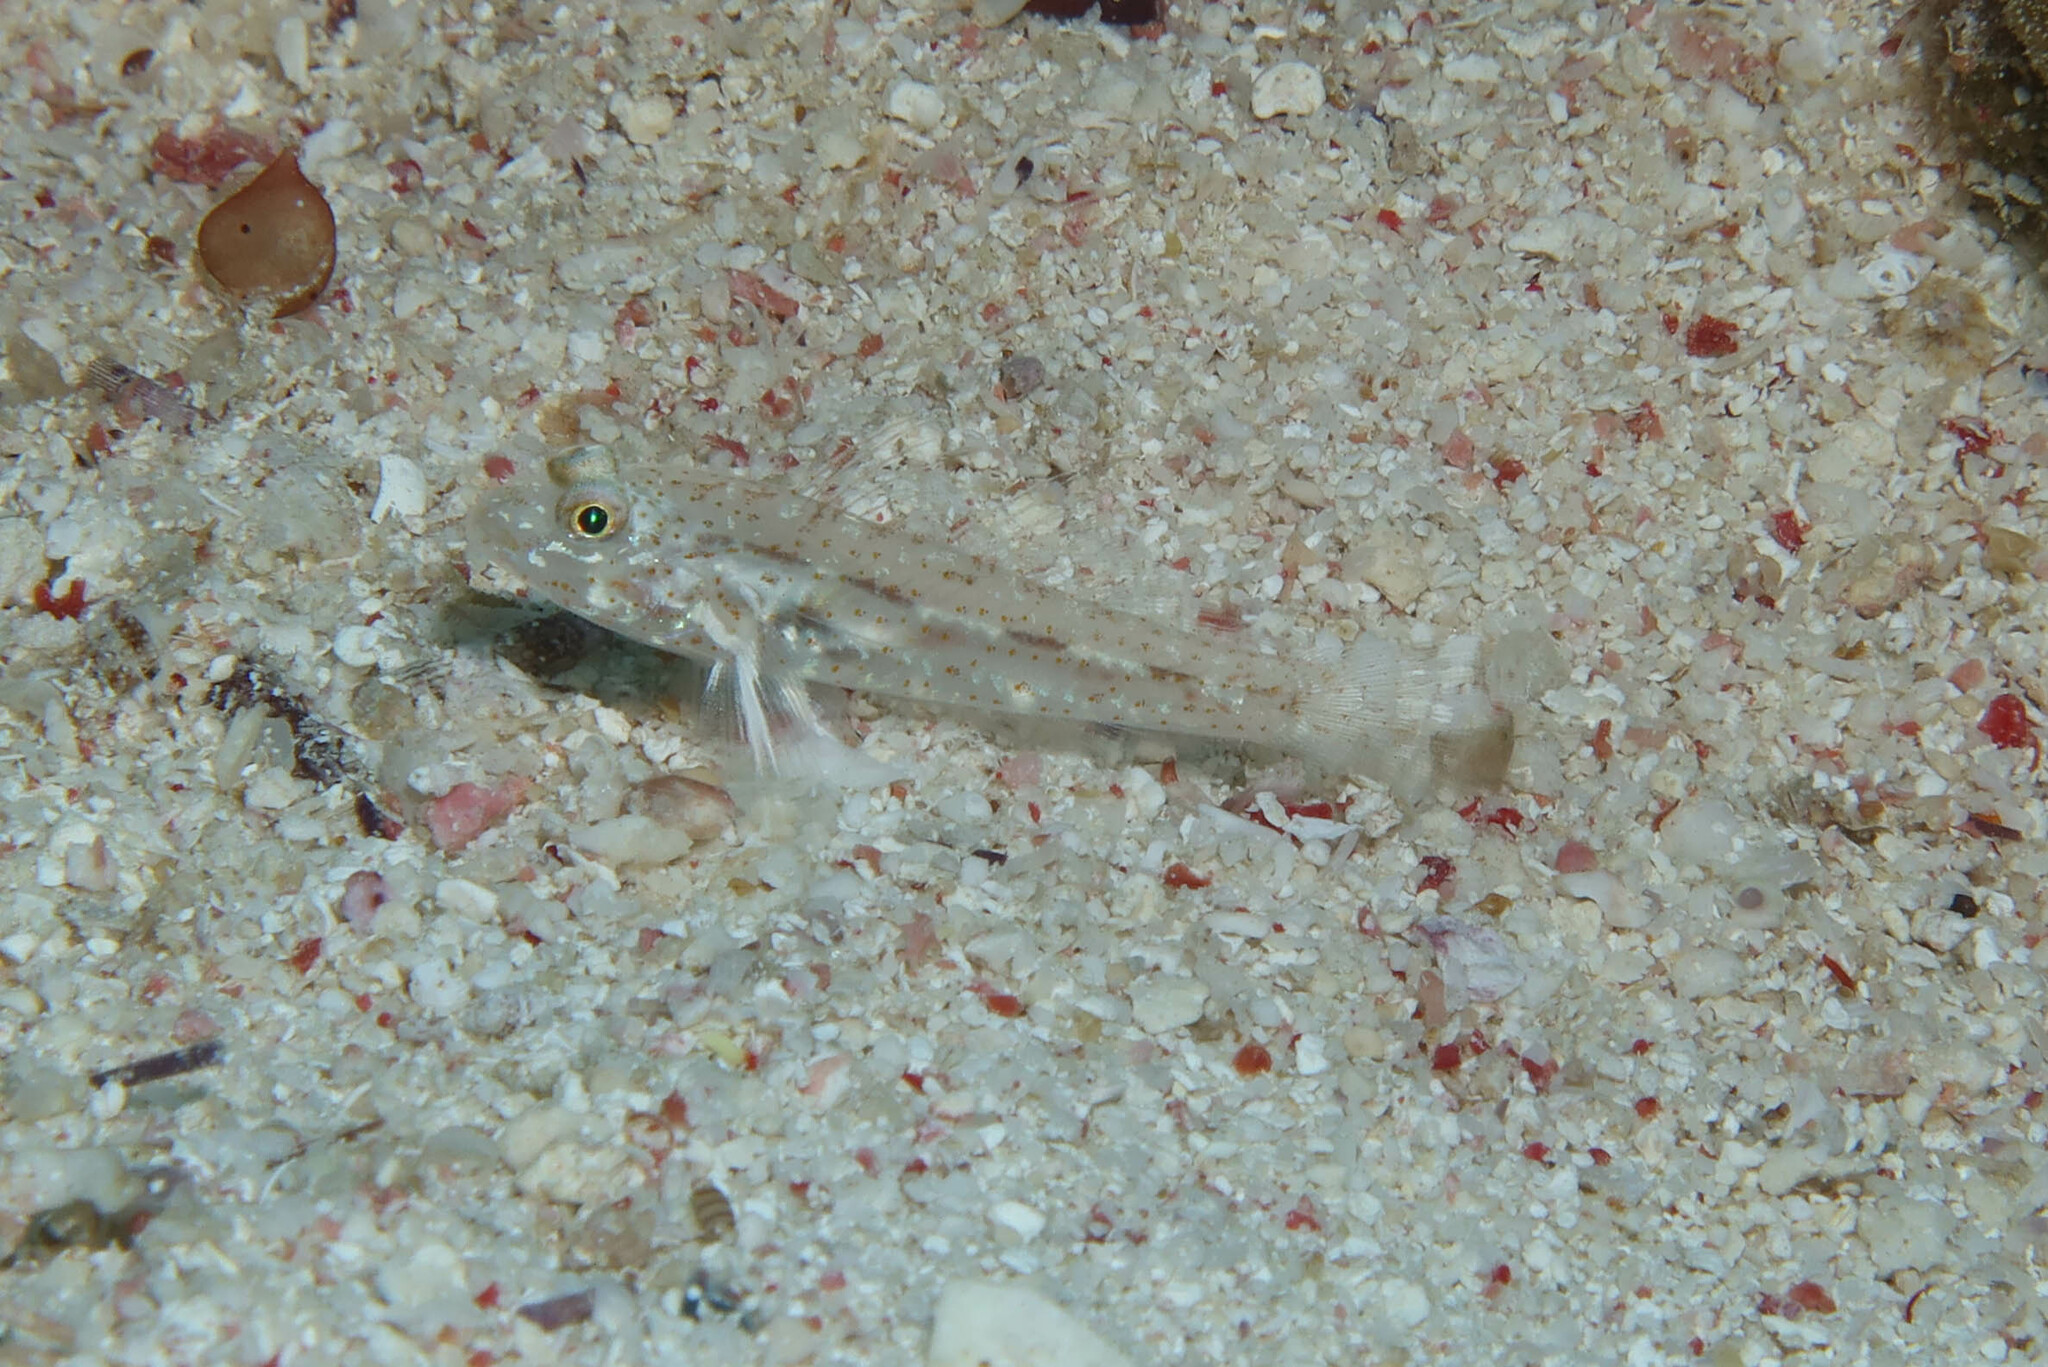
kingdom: Animalia
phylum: Chordata
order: Perciformes
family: Gobiidae
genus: Fusigobius
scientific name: Fusigobius humerosus
